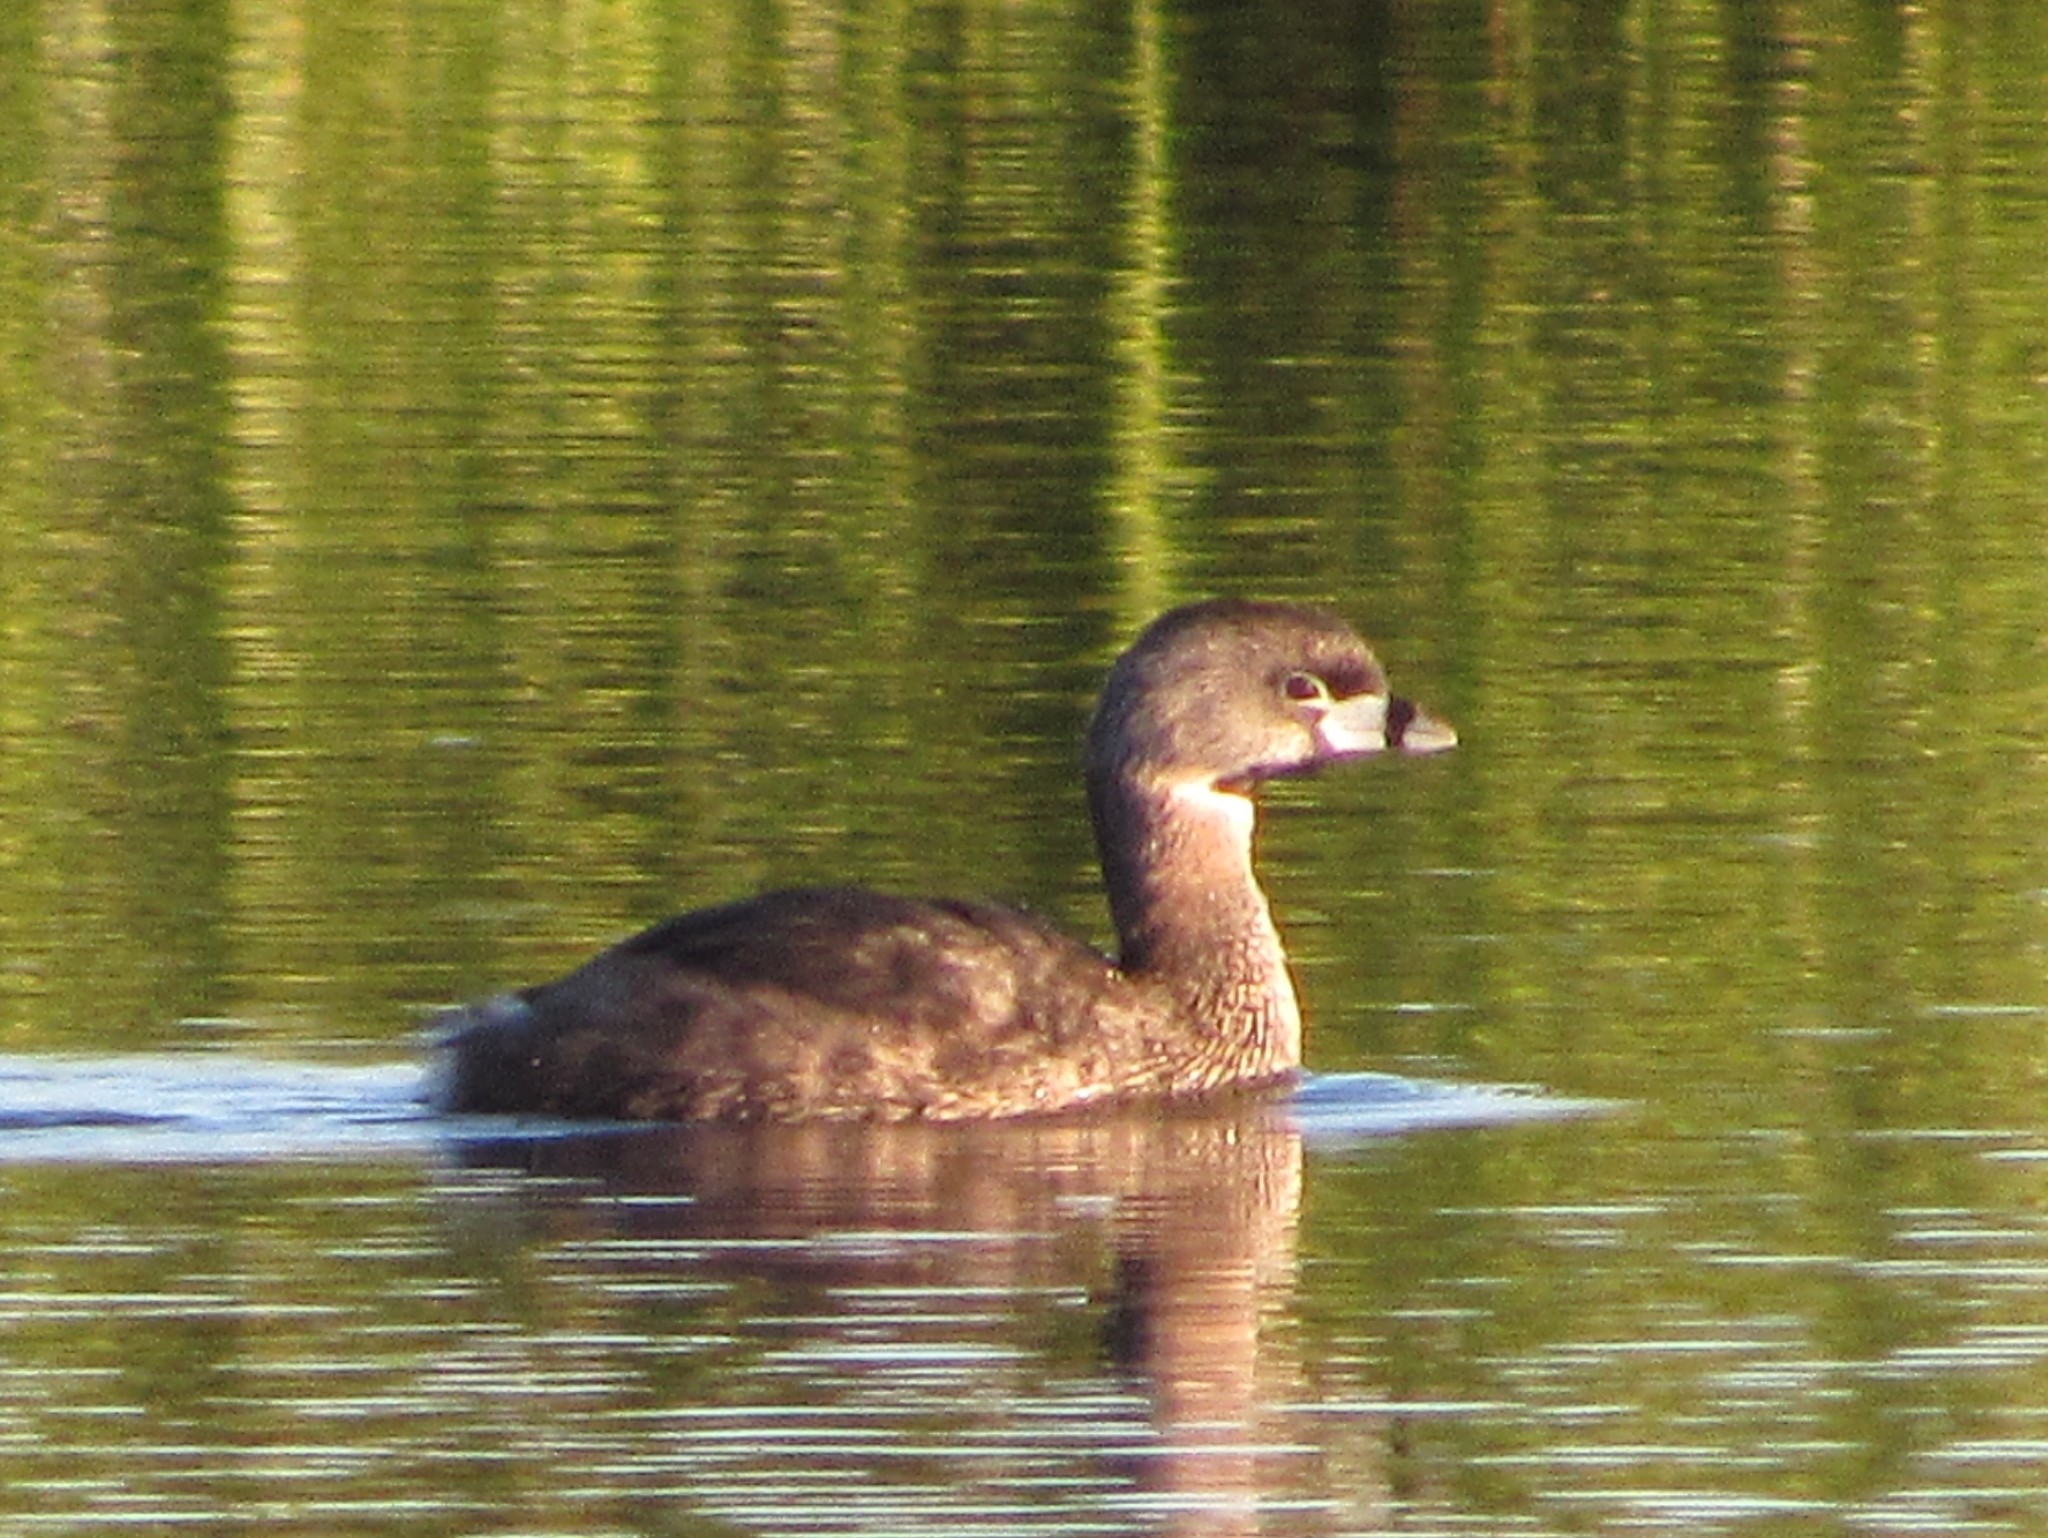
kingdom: Animalia
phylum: Chordata
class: Aves
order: Podicipediformes
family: Podicipedidae
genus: Podilymbus
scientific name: Podilymbus podiceps
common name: Pied-billed grebe
